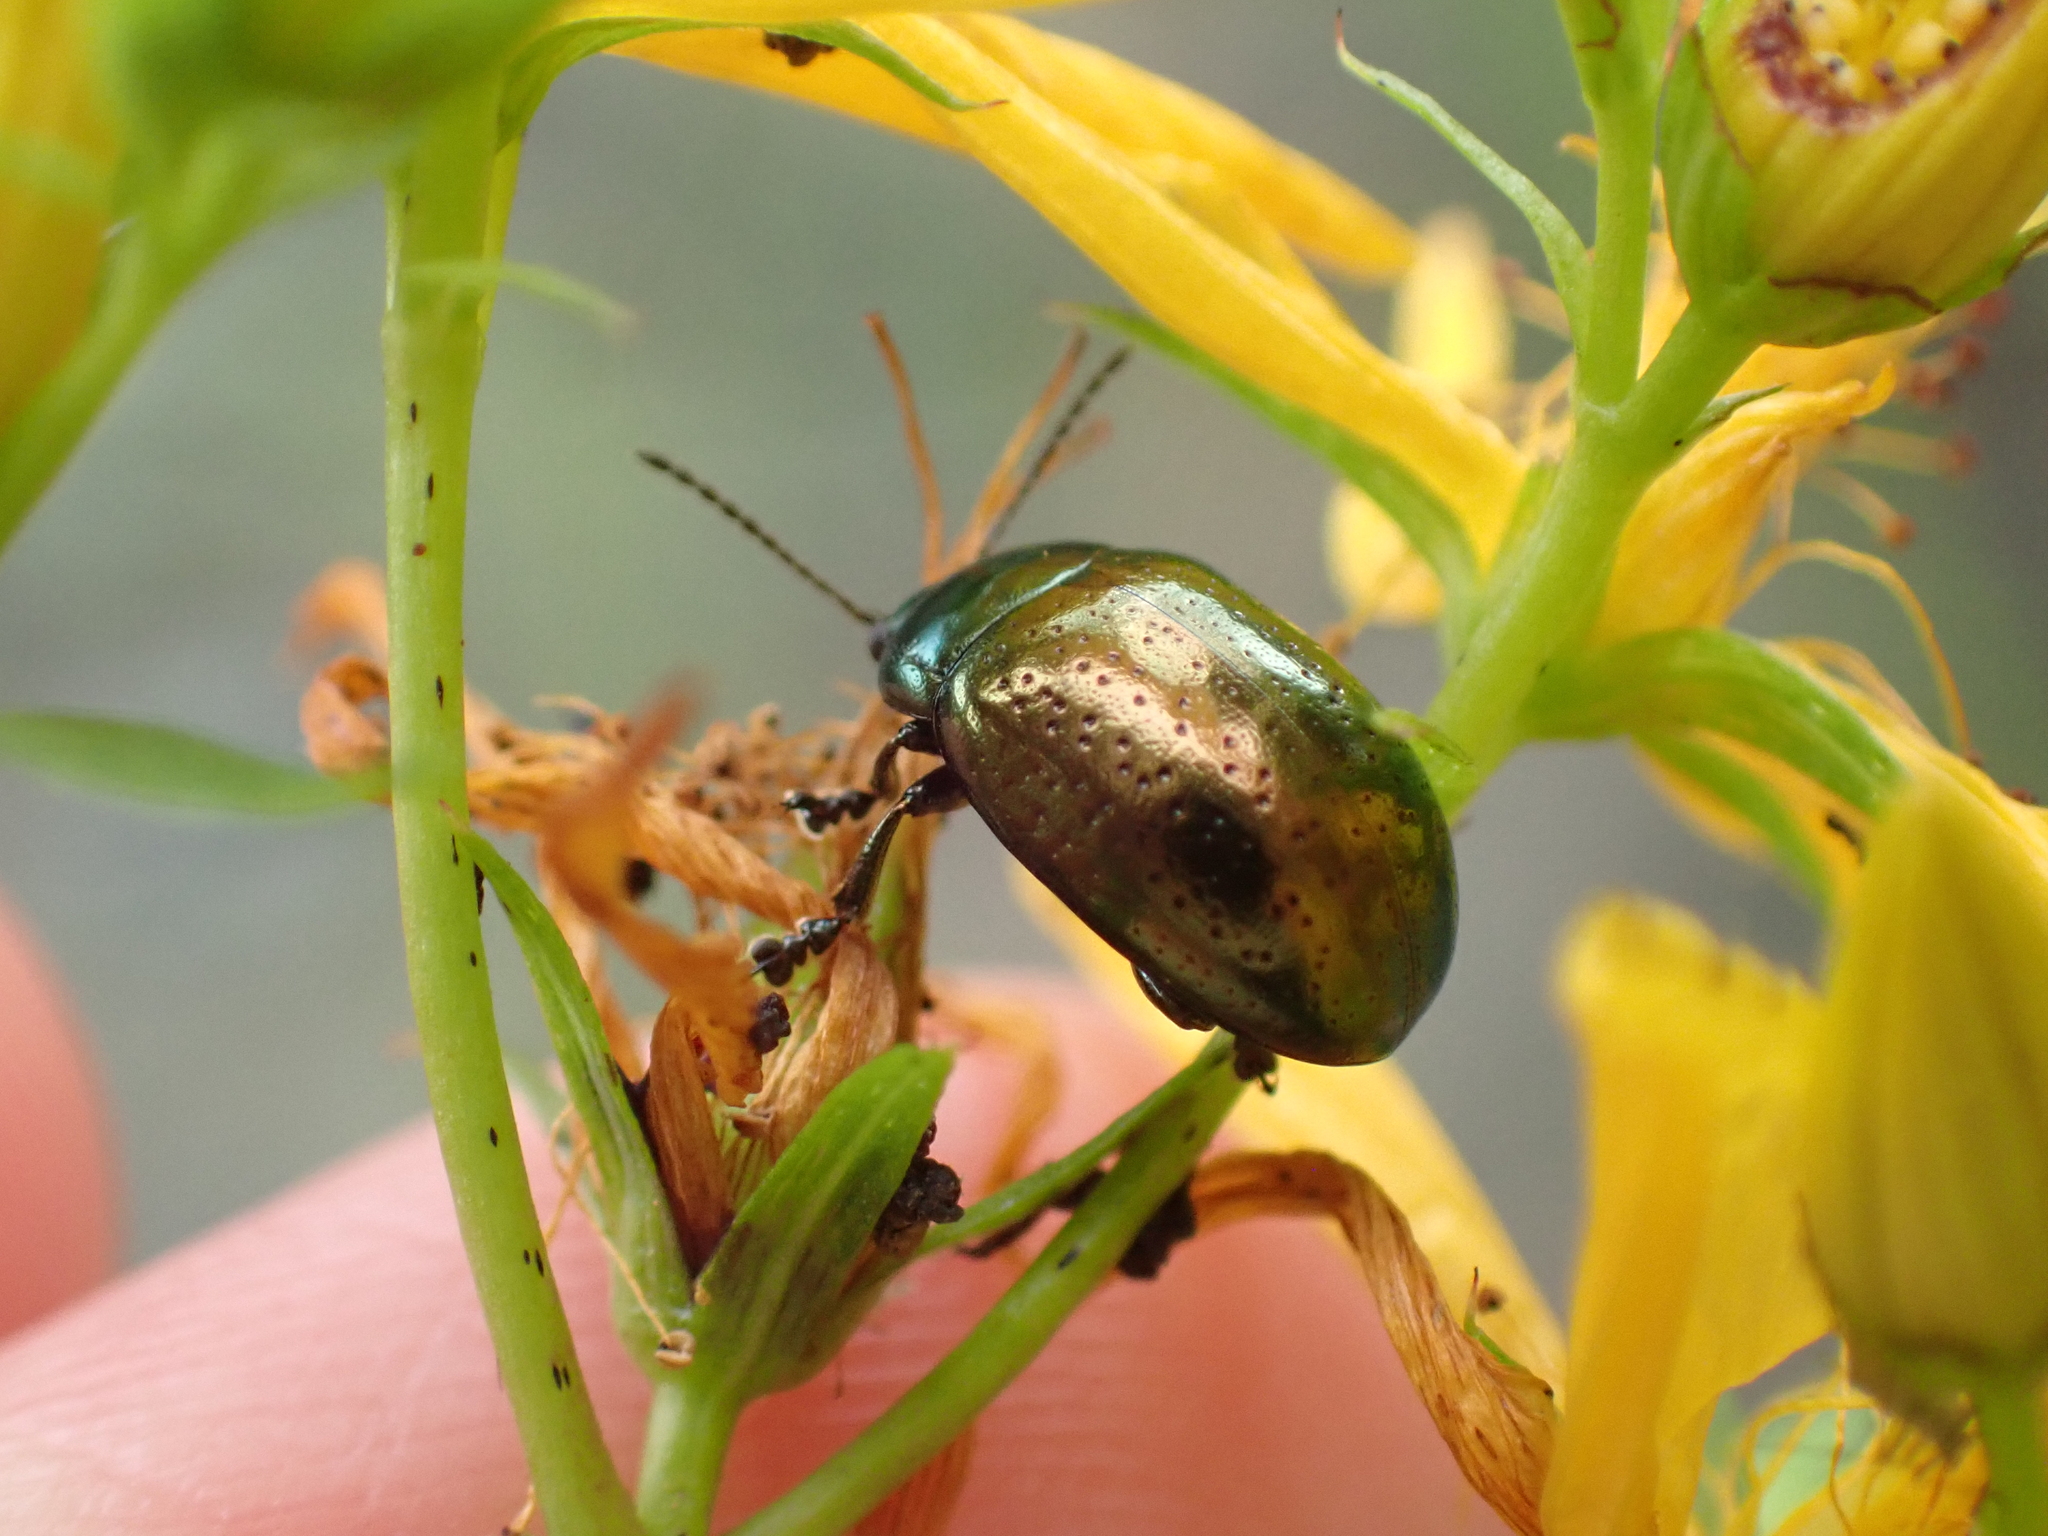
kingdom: Animalia
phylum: Arthropoda
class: Insecta
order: Coleoptera
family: Chrysomelidae
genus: Chrysolina
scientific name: Chrysolina hyperici
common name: St. johnswort beetle
